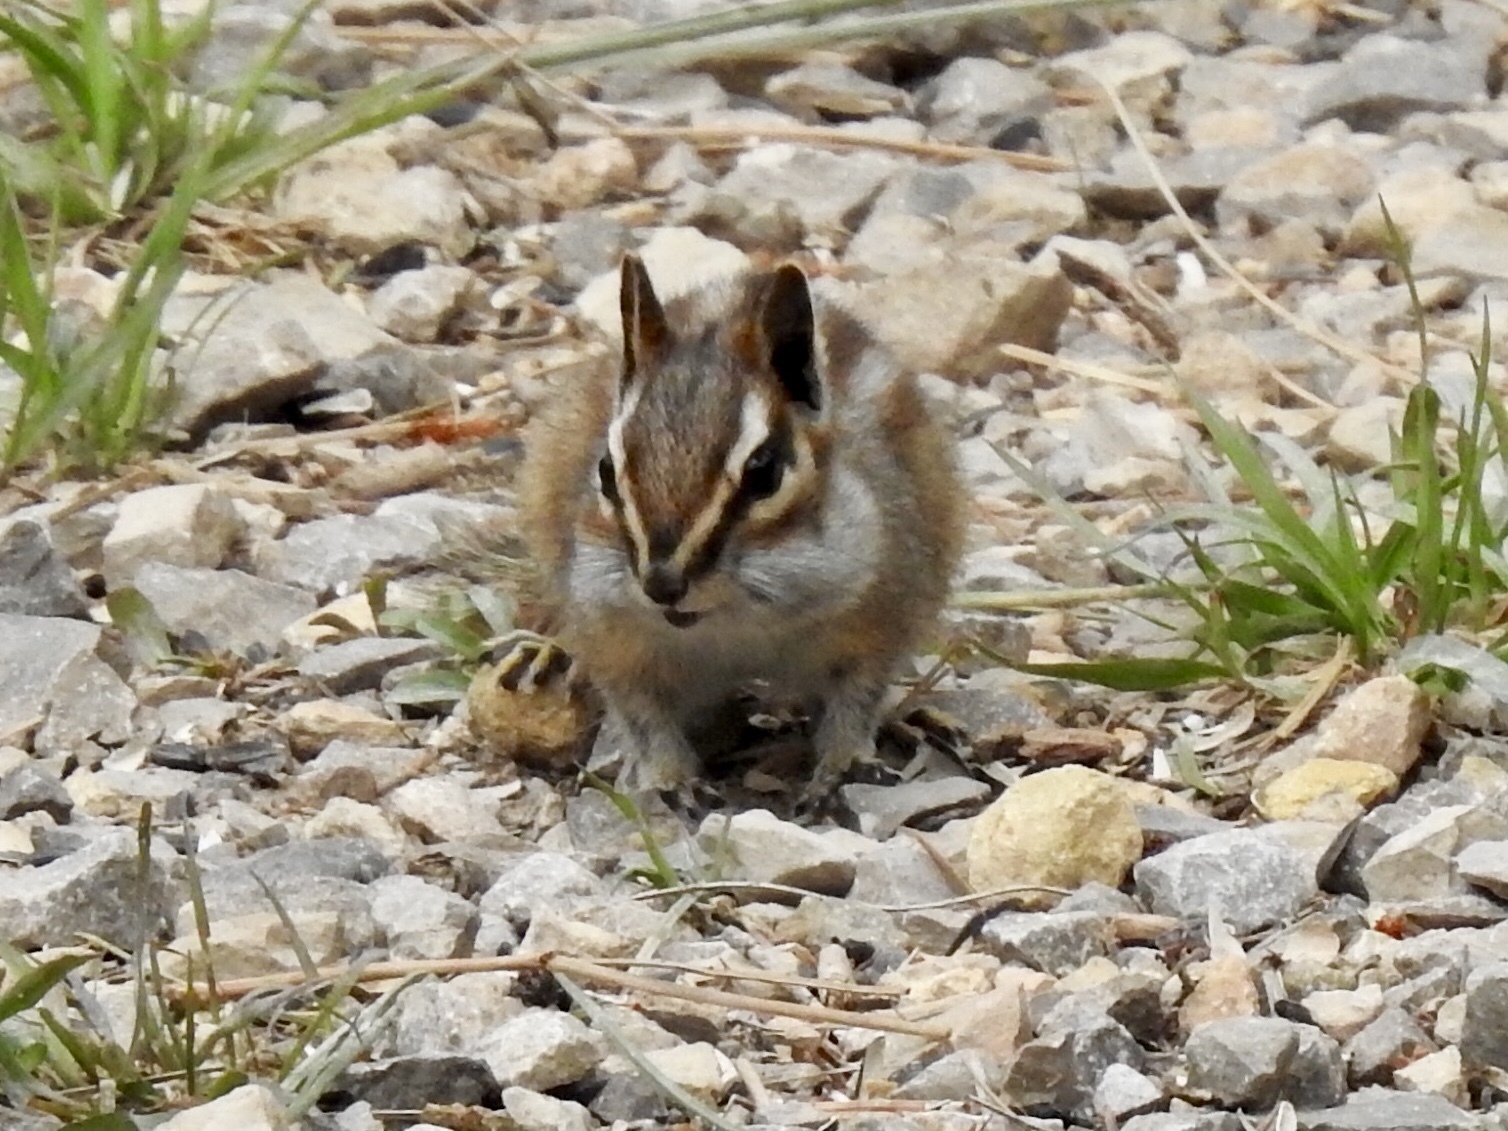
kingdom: Animalia
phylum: Chordata
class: Mammalia
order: Rodentia
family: Sciuridae
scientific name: Sciuridae
